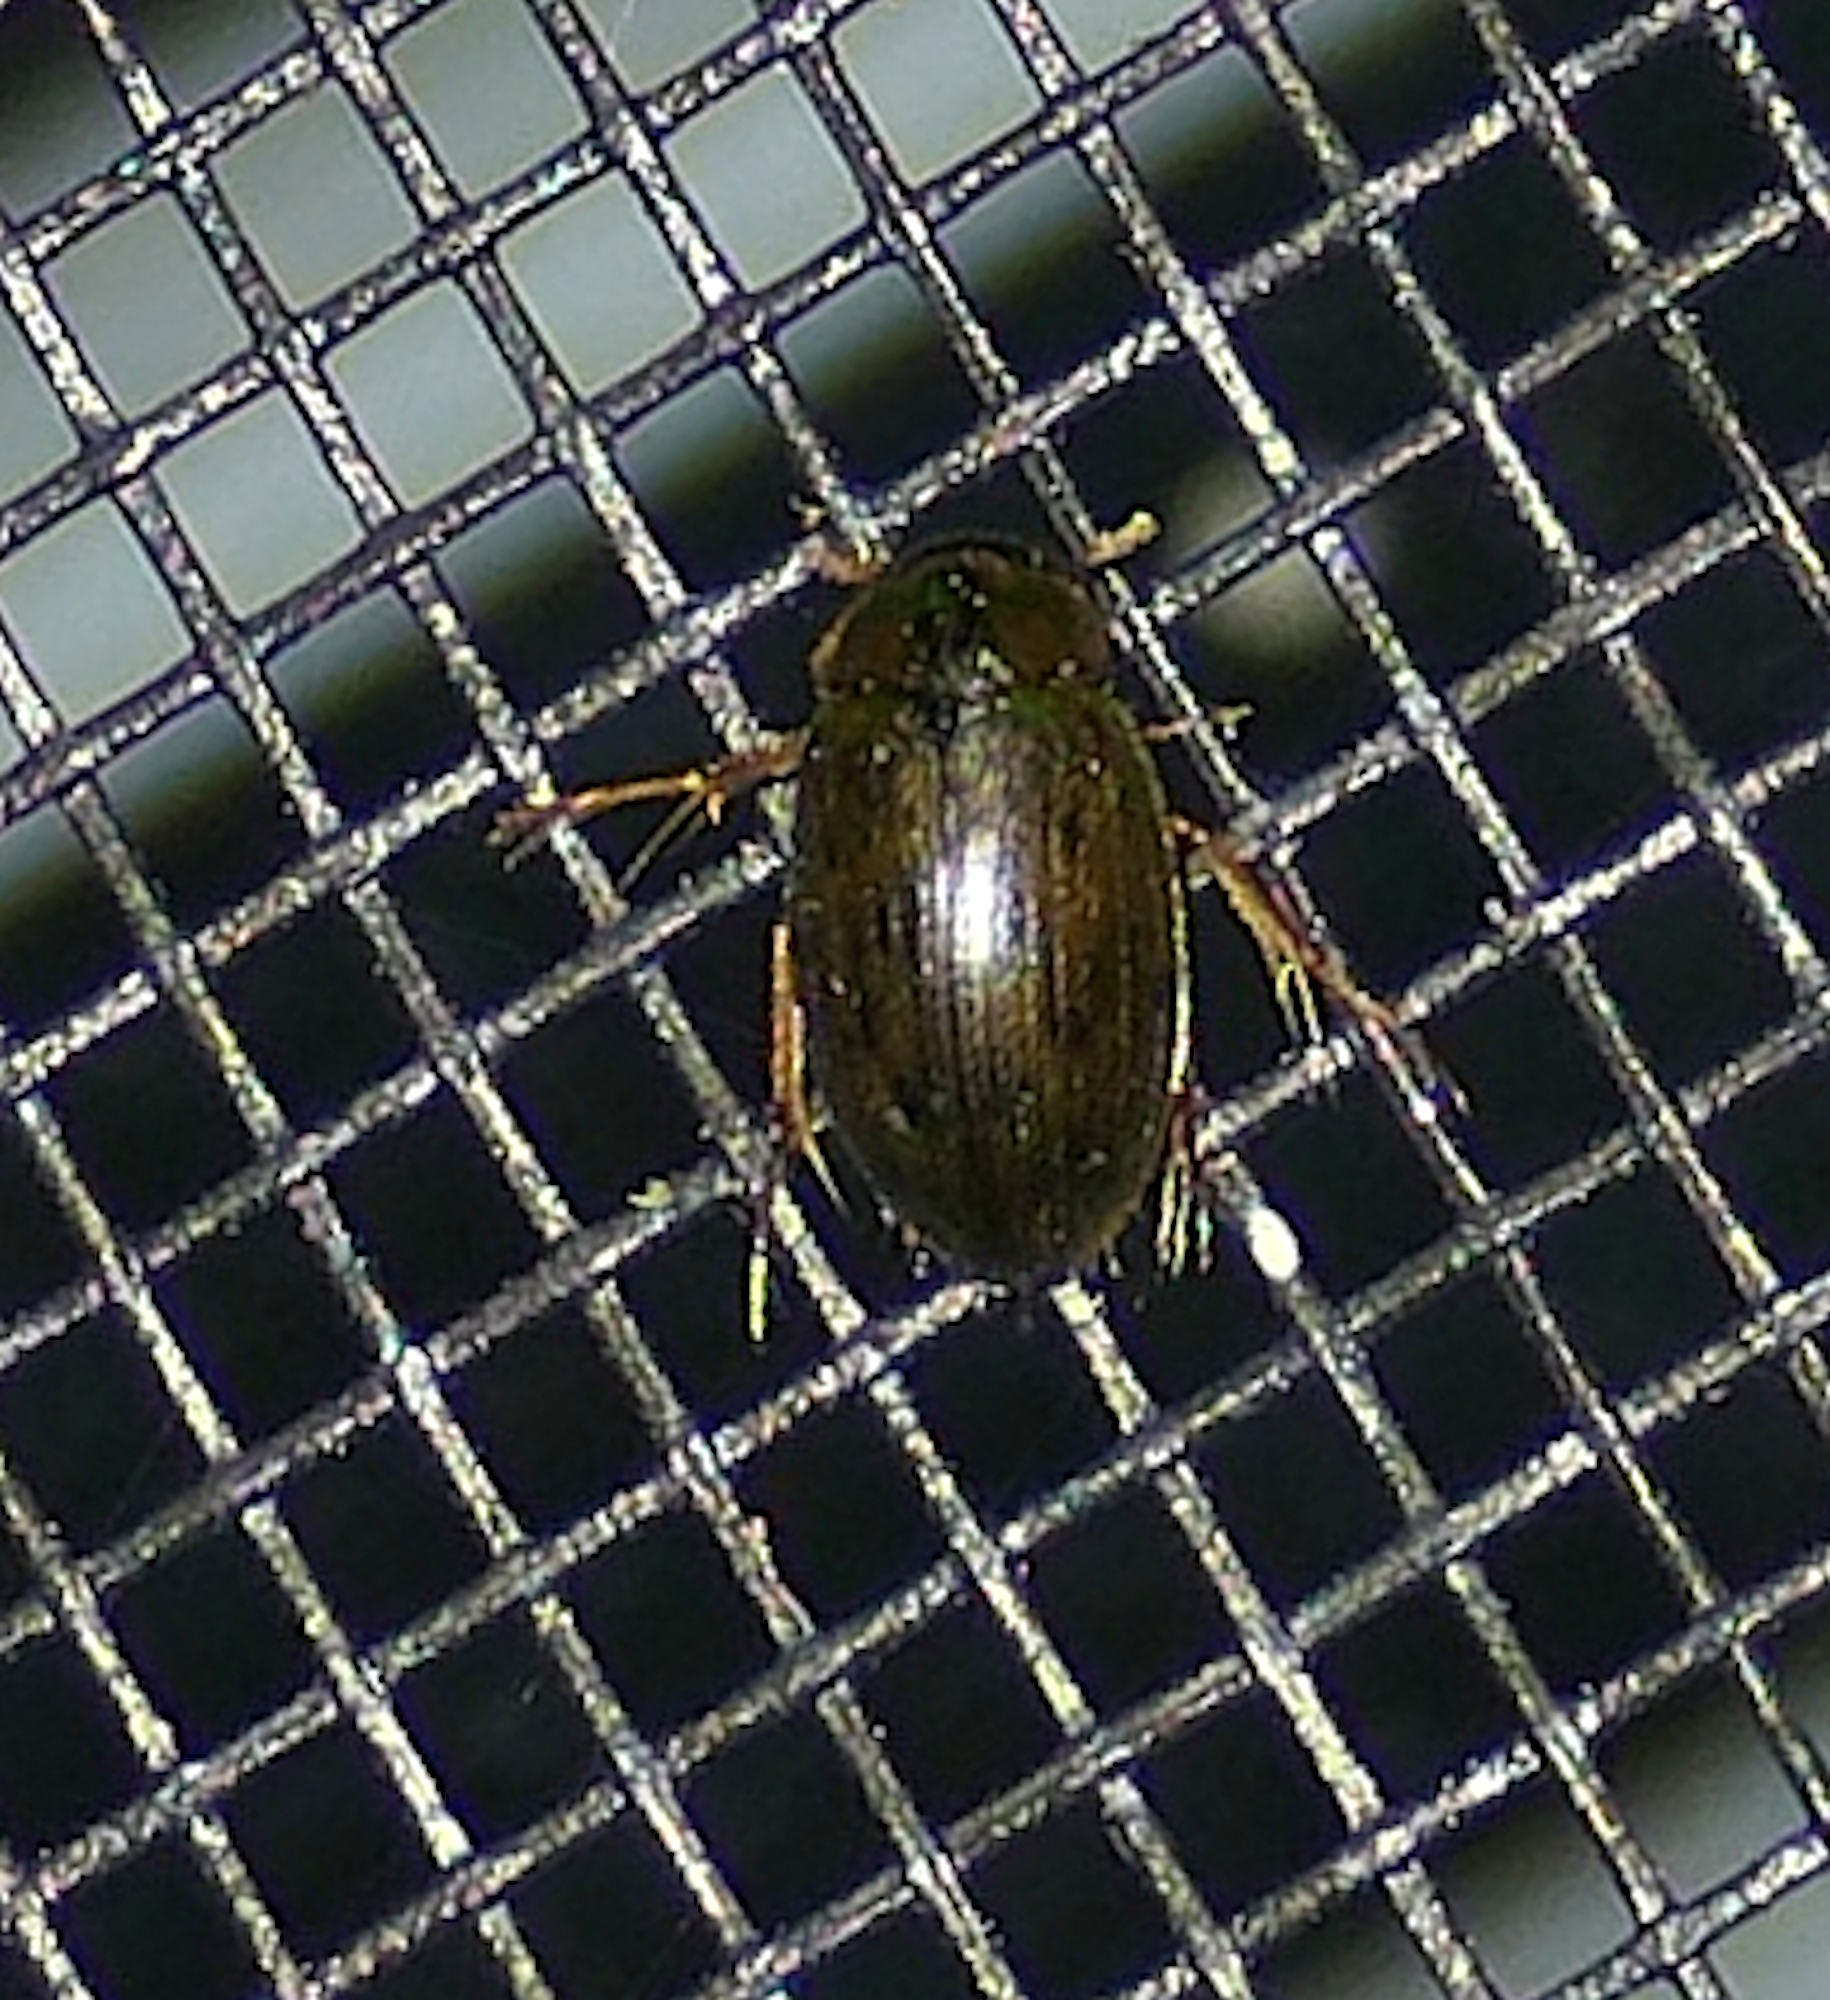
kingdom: Animalia
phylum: Arthropoda
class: Insecta
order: Coleoptera
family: Hydrophilidae
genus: Berosus
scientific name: Berosus
